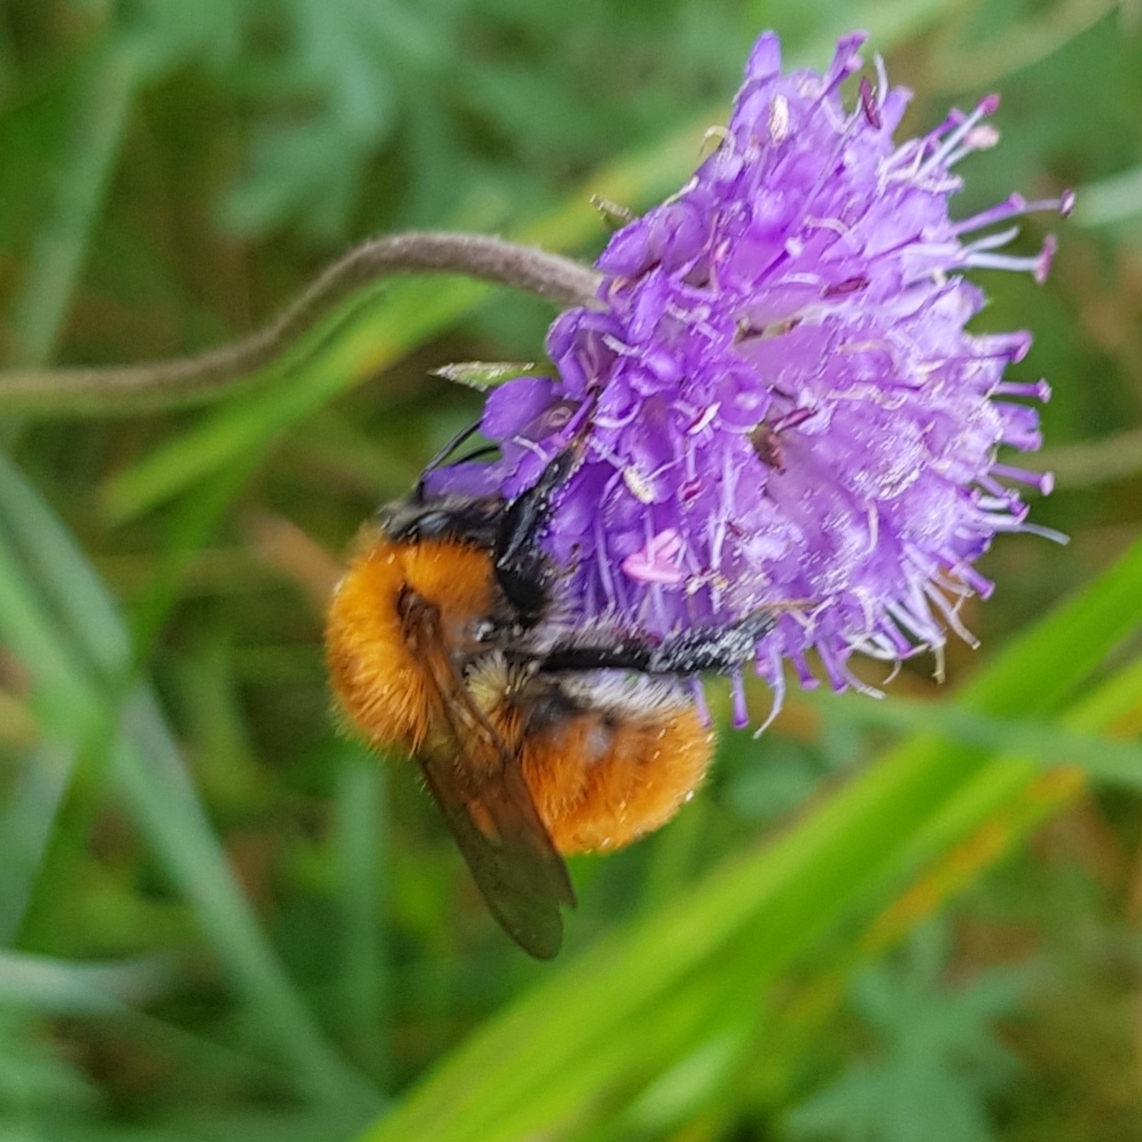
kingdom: Animalia
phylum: Arthropoda
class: Insecta
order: Hymenoptera
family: Apidae
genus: Bombus
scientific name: Bombus pascuorum
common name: Common carder bee
